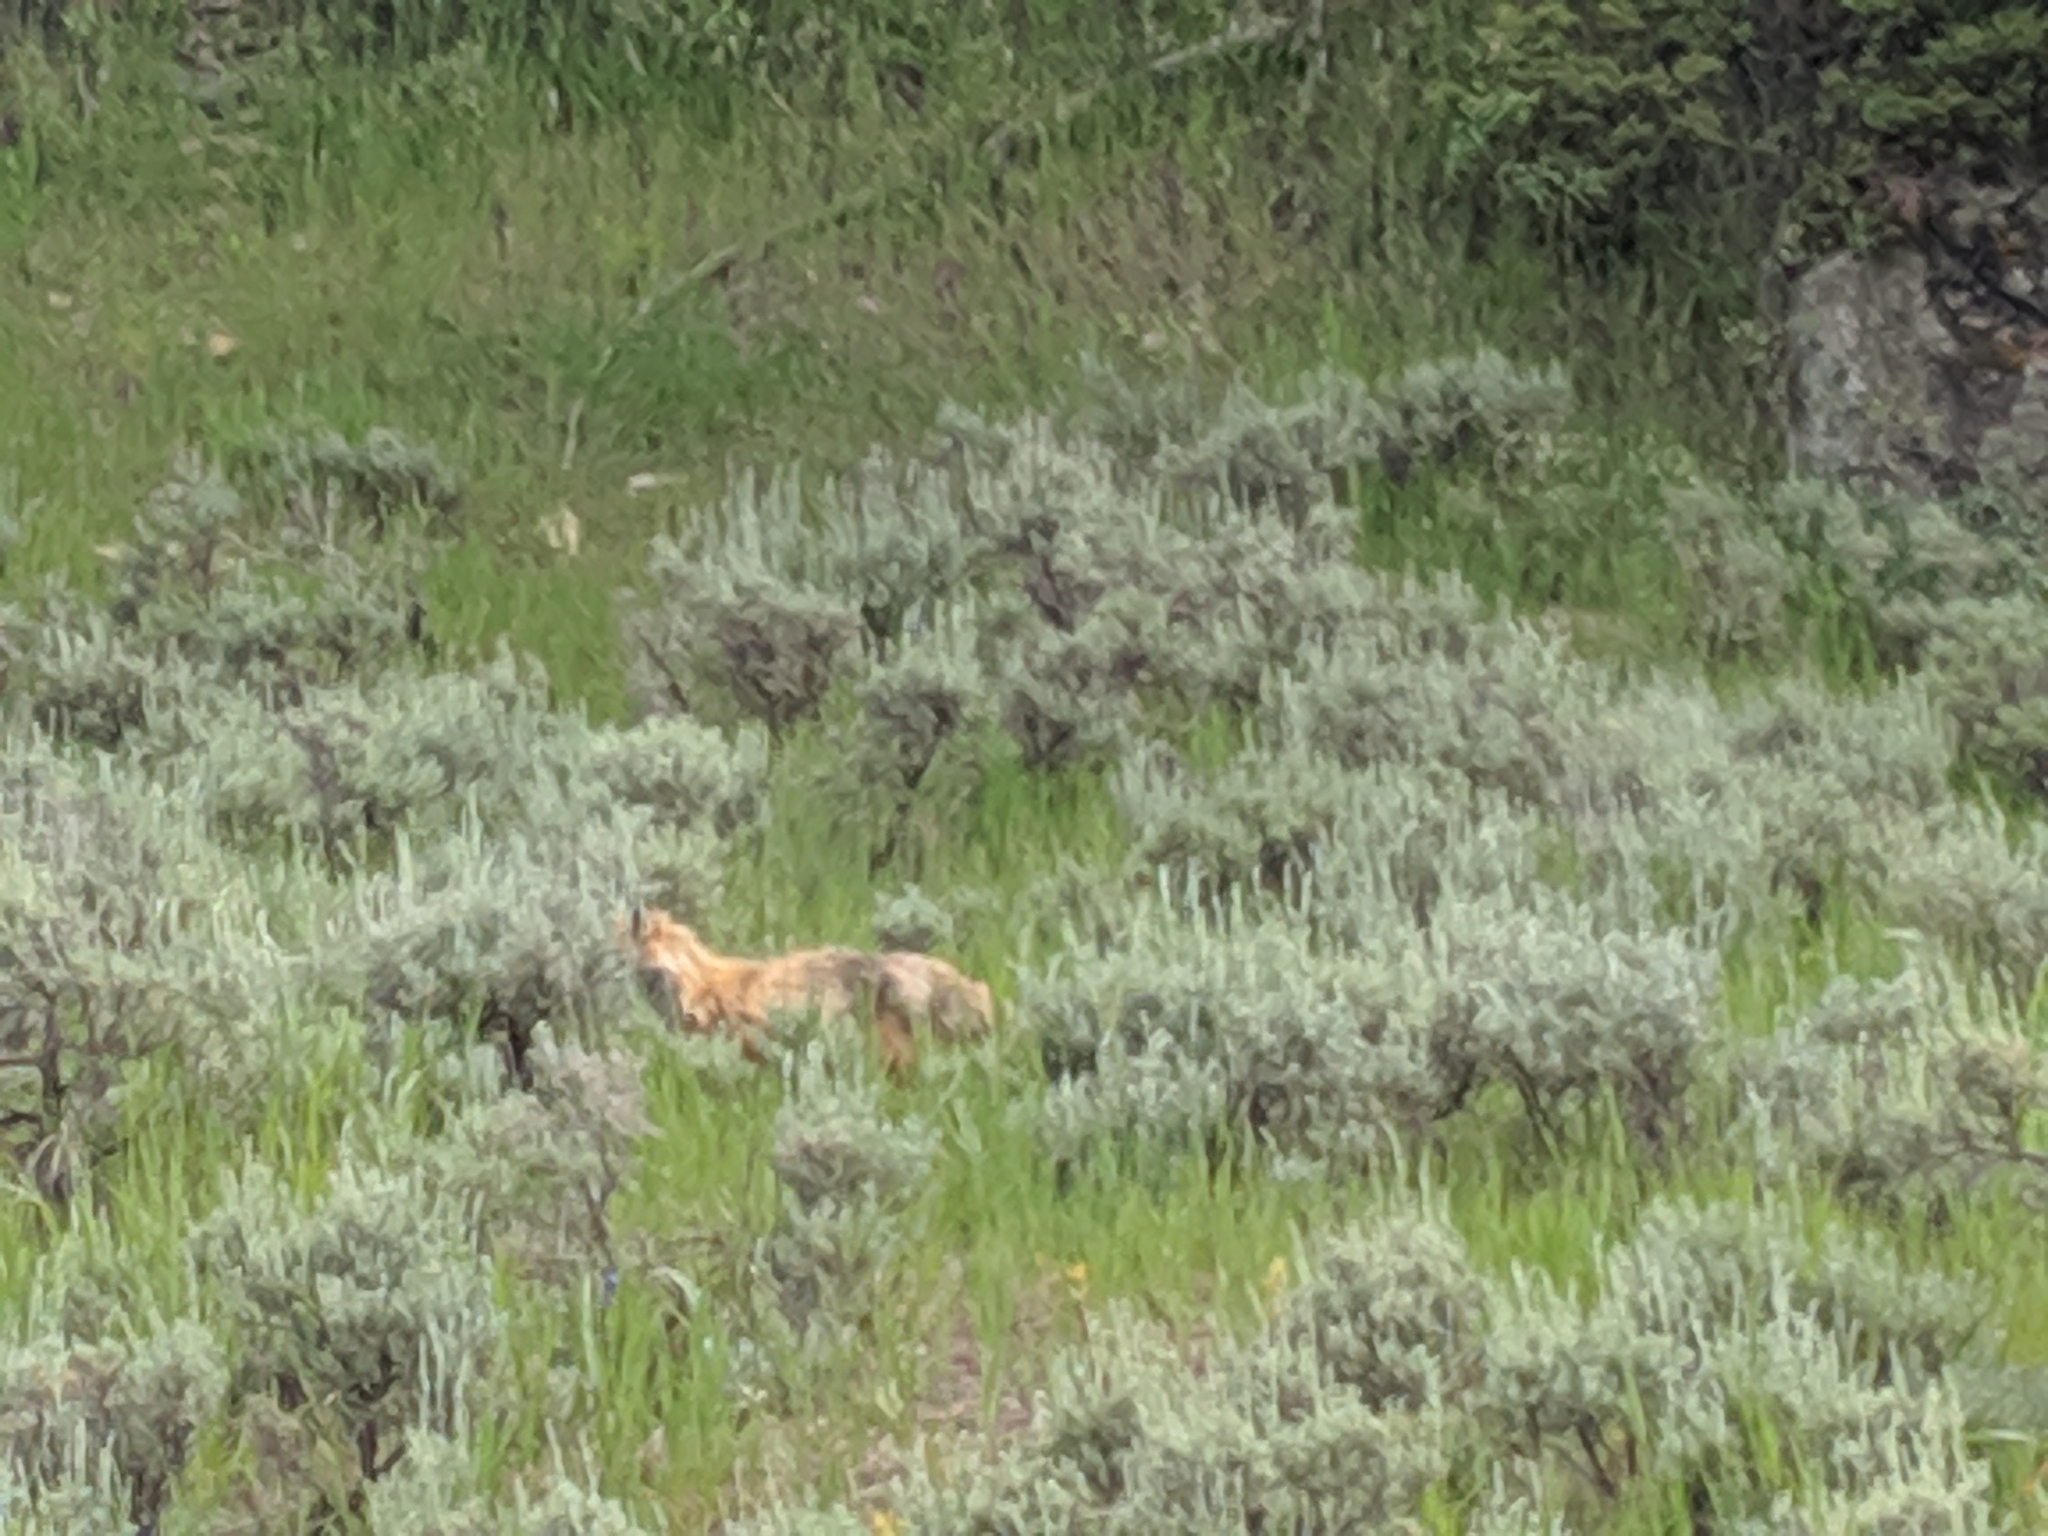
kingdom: Animalia
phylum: Chordata
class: Mammalia
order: Carnivora
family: Canidae
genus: Vulpes
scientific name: Vulpes vulpes
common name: Red fox
